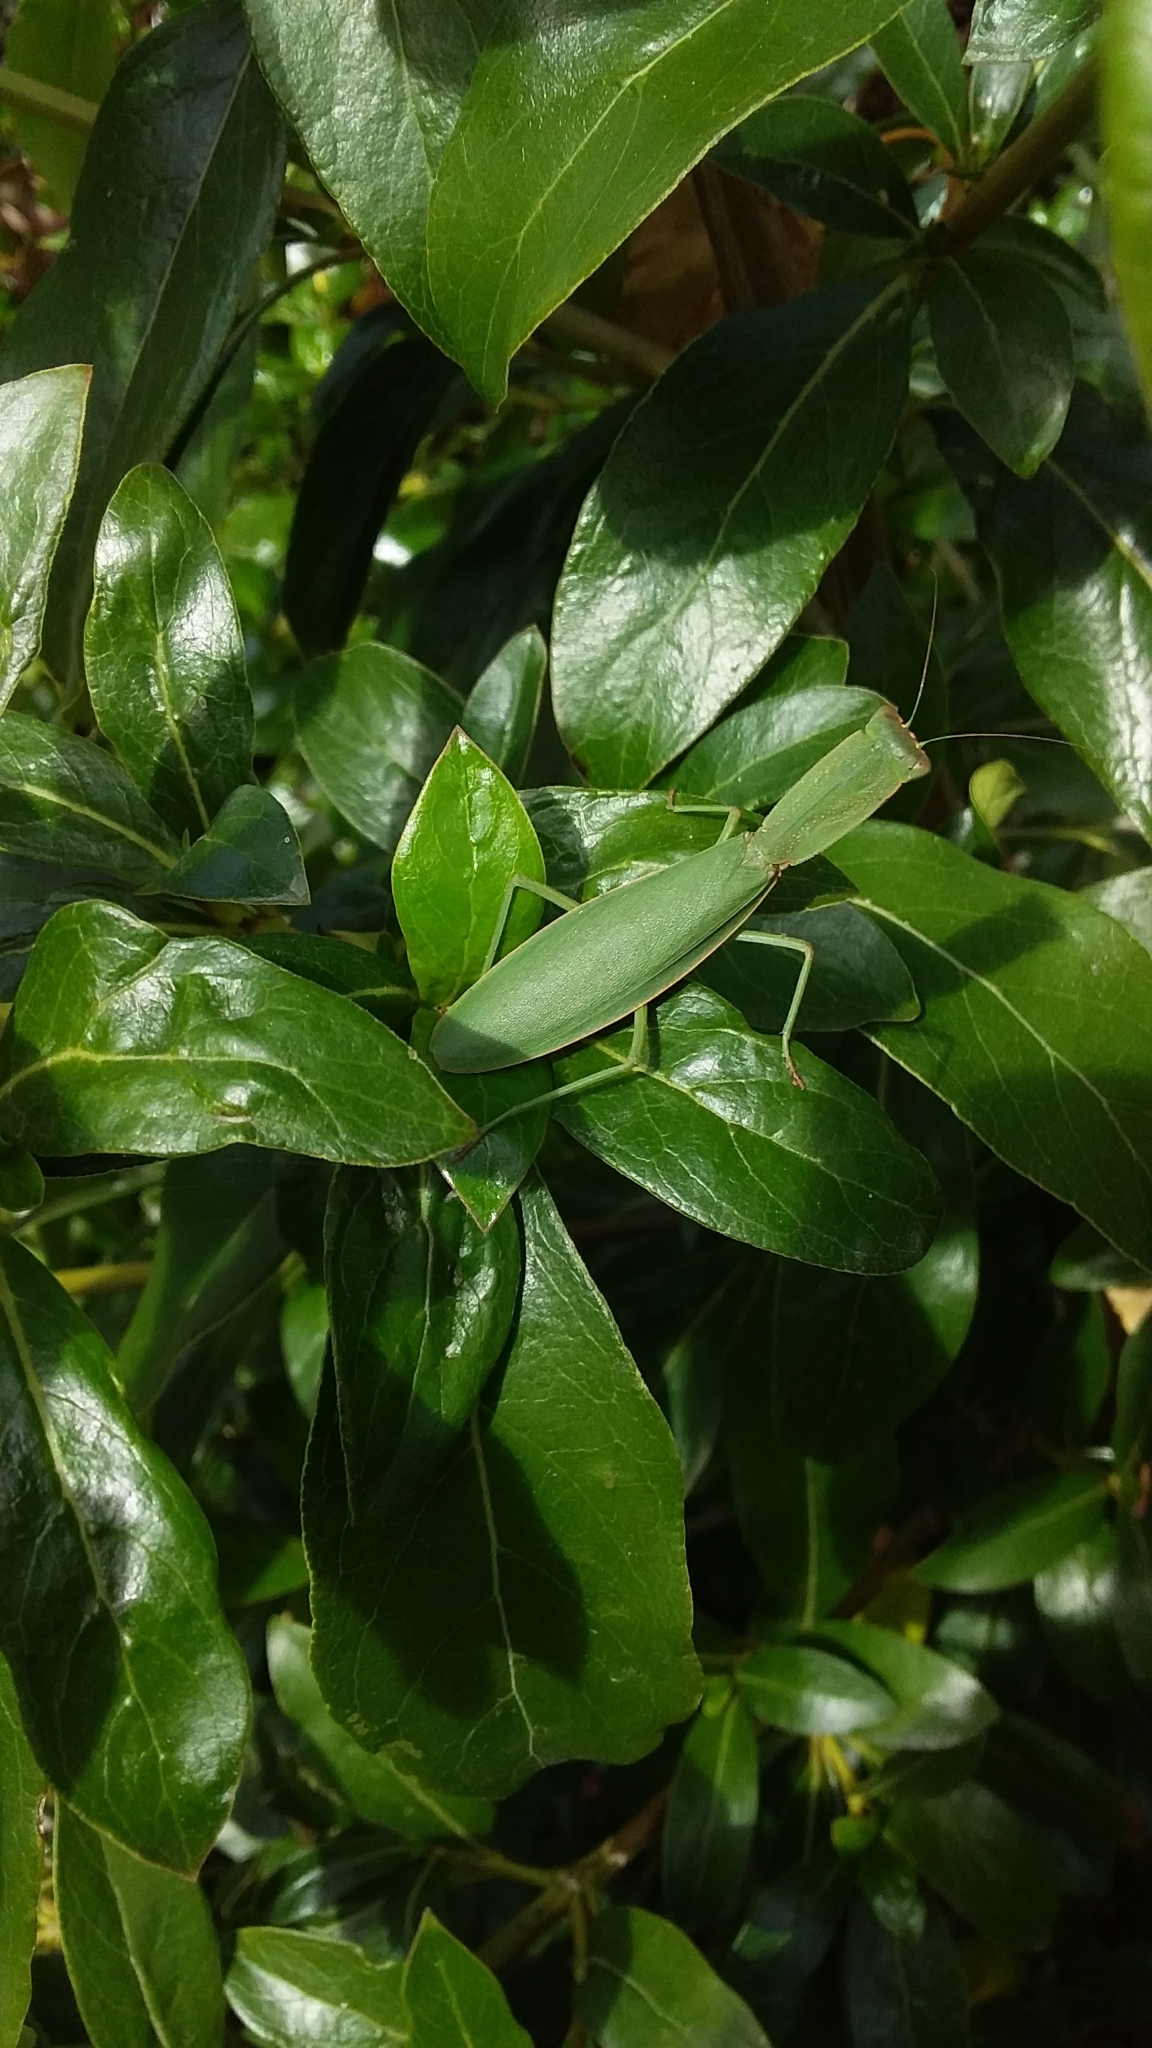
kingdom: Animalia
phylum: Arthropoda
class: Insecta
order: Mantodea
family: Mantidae
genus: Orthodera
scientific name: Orthodera novaezealandiae
